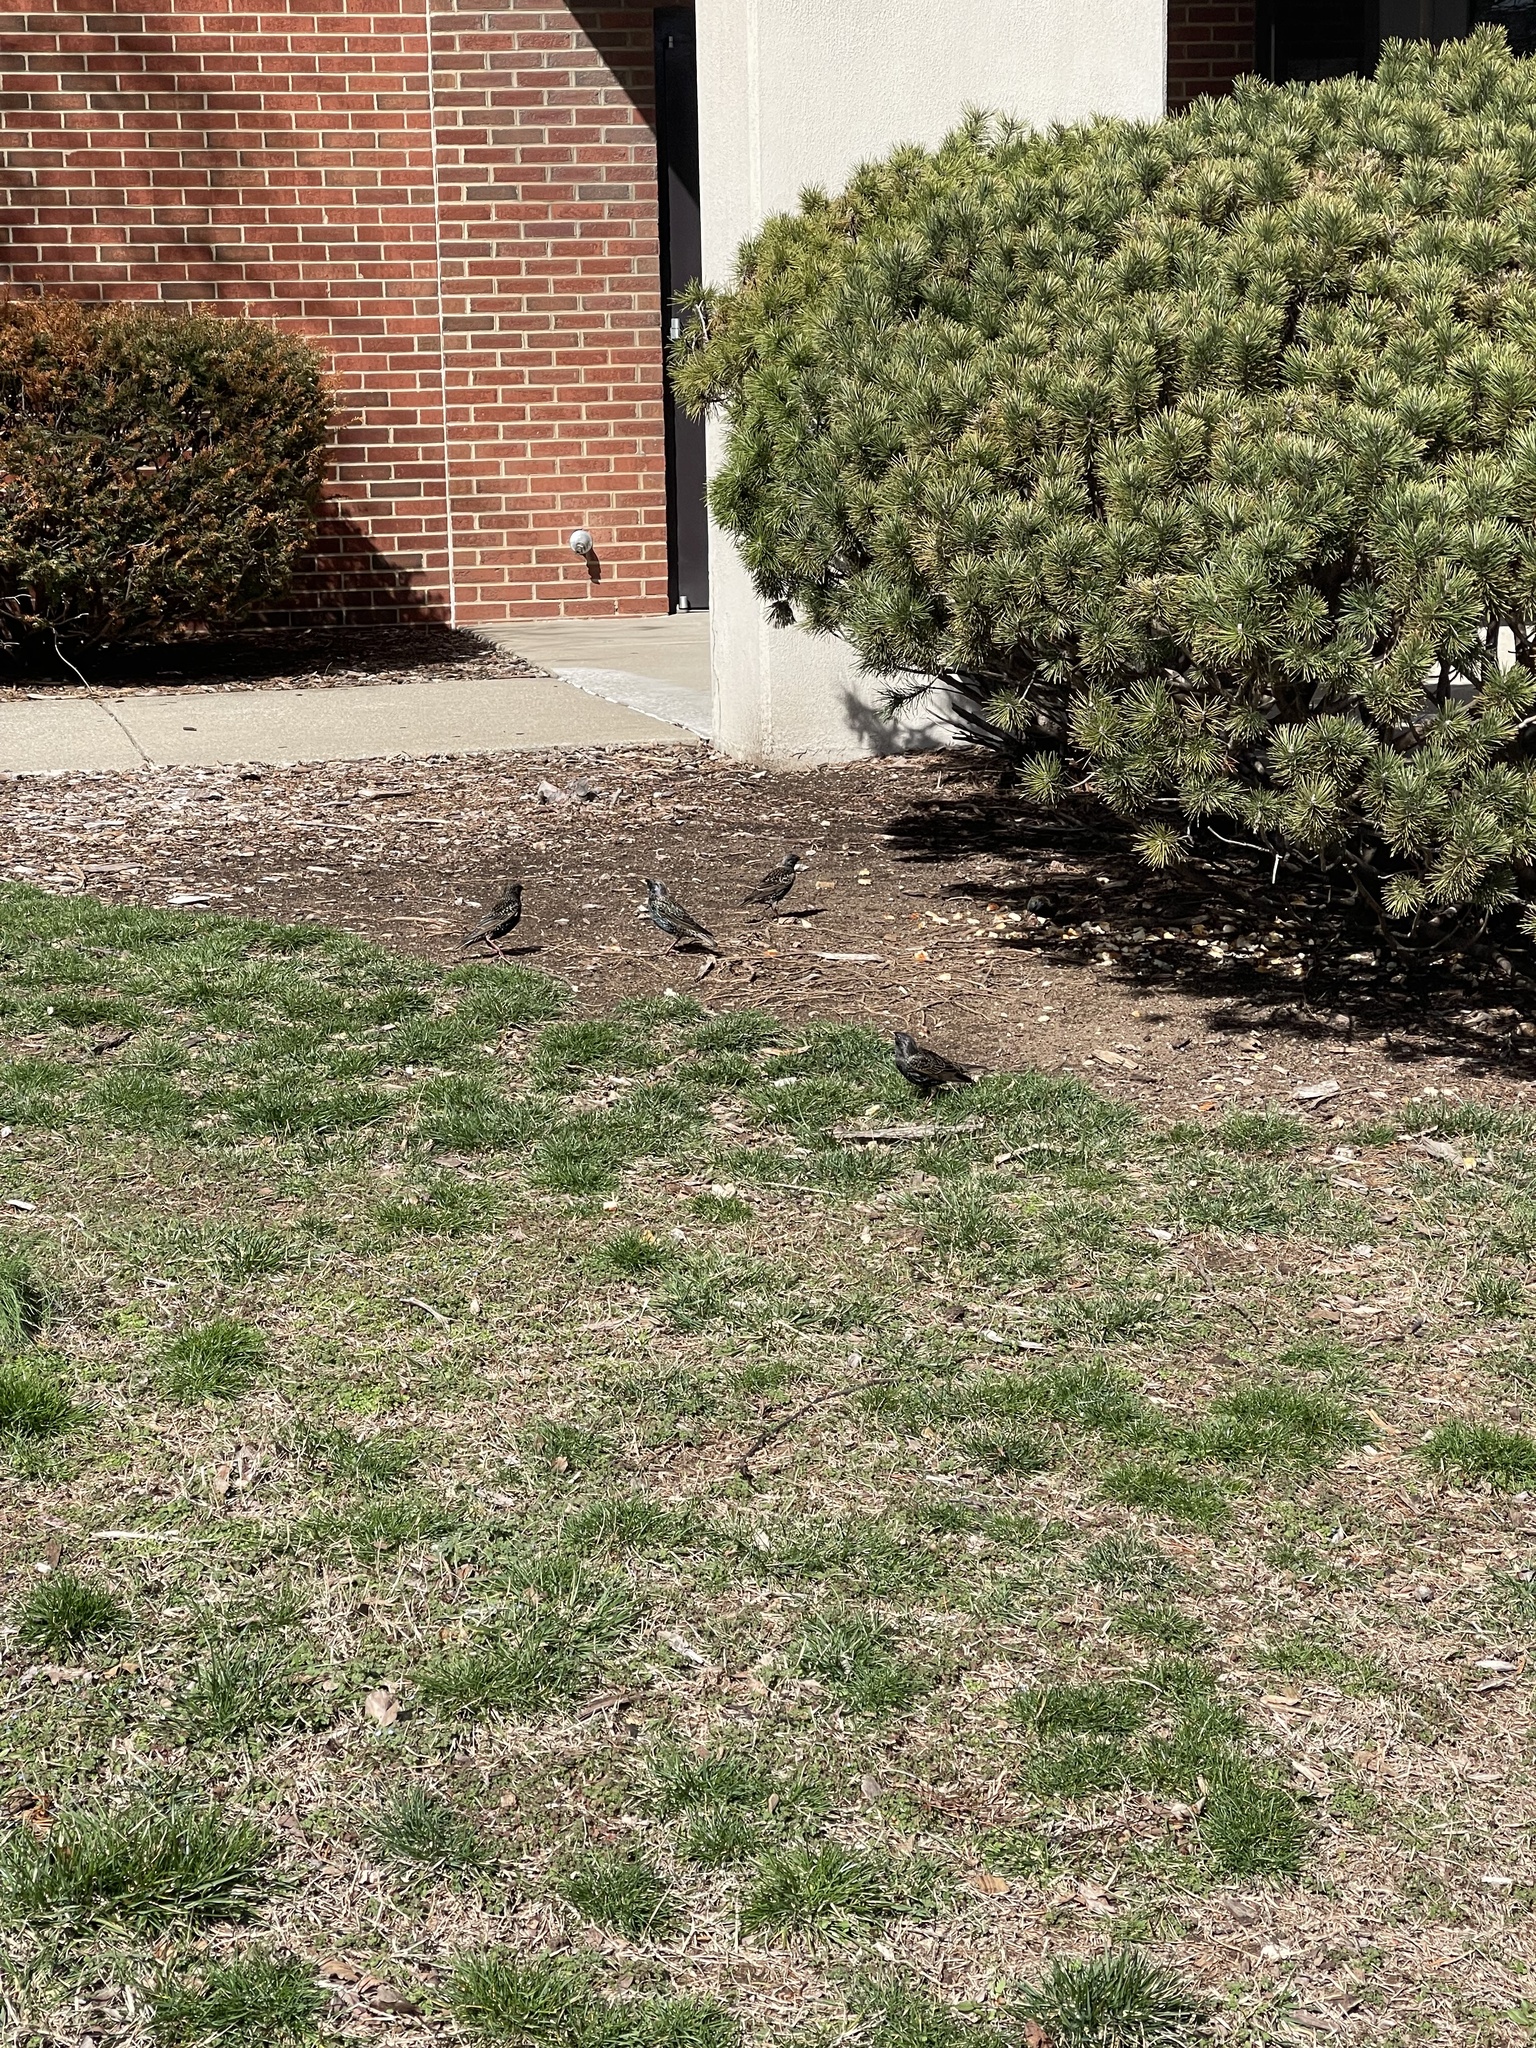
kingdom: Animalia
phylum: Chordata
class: Aves
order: Passeriformes
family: Sturnidae
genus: Sturnus
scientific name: Sturnus vulgaris
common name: Common starling
